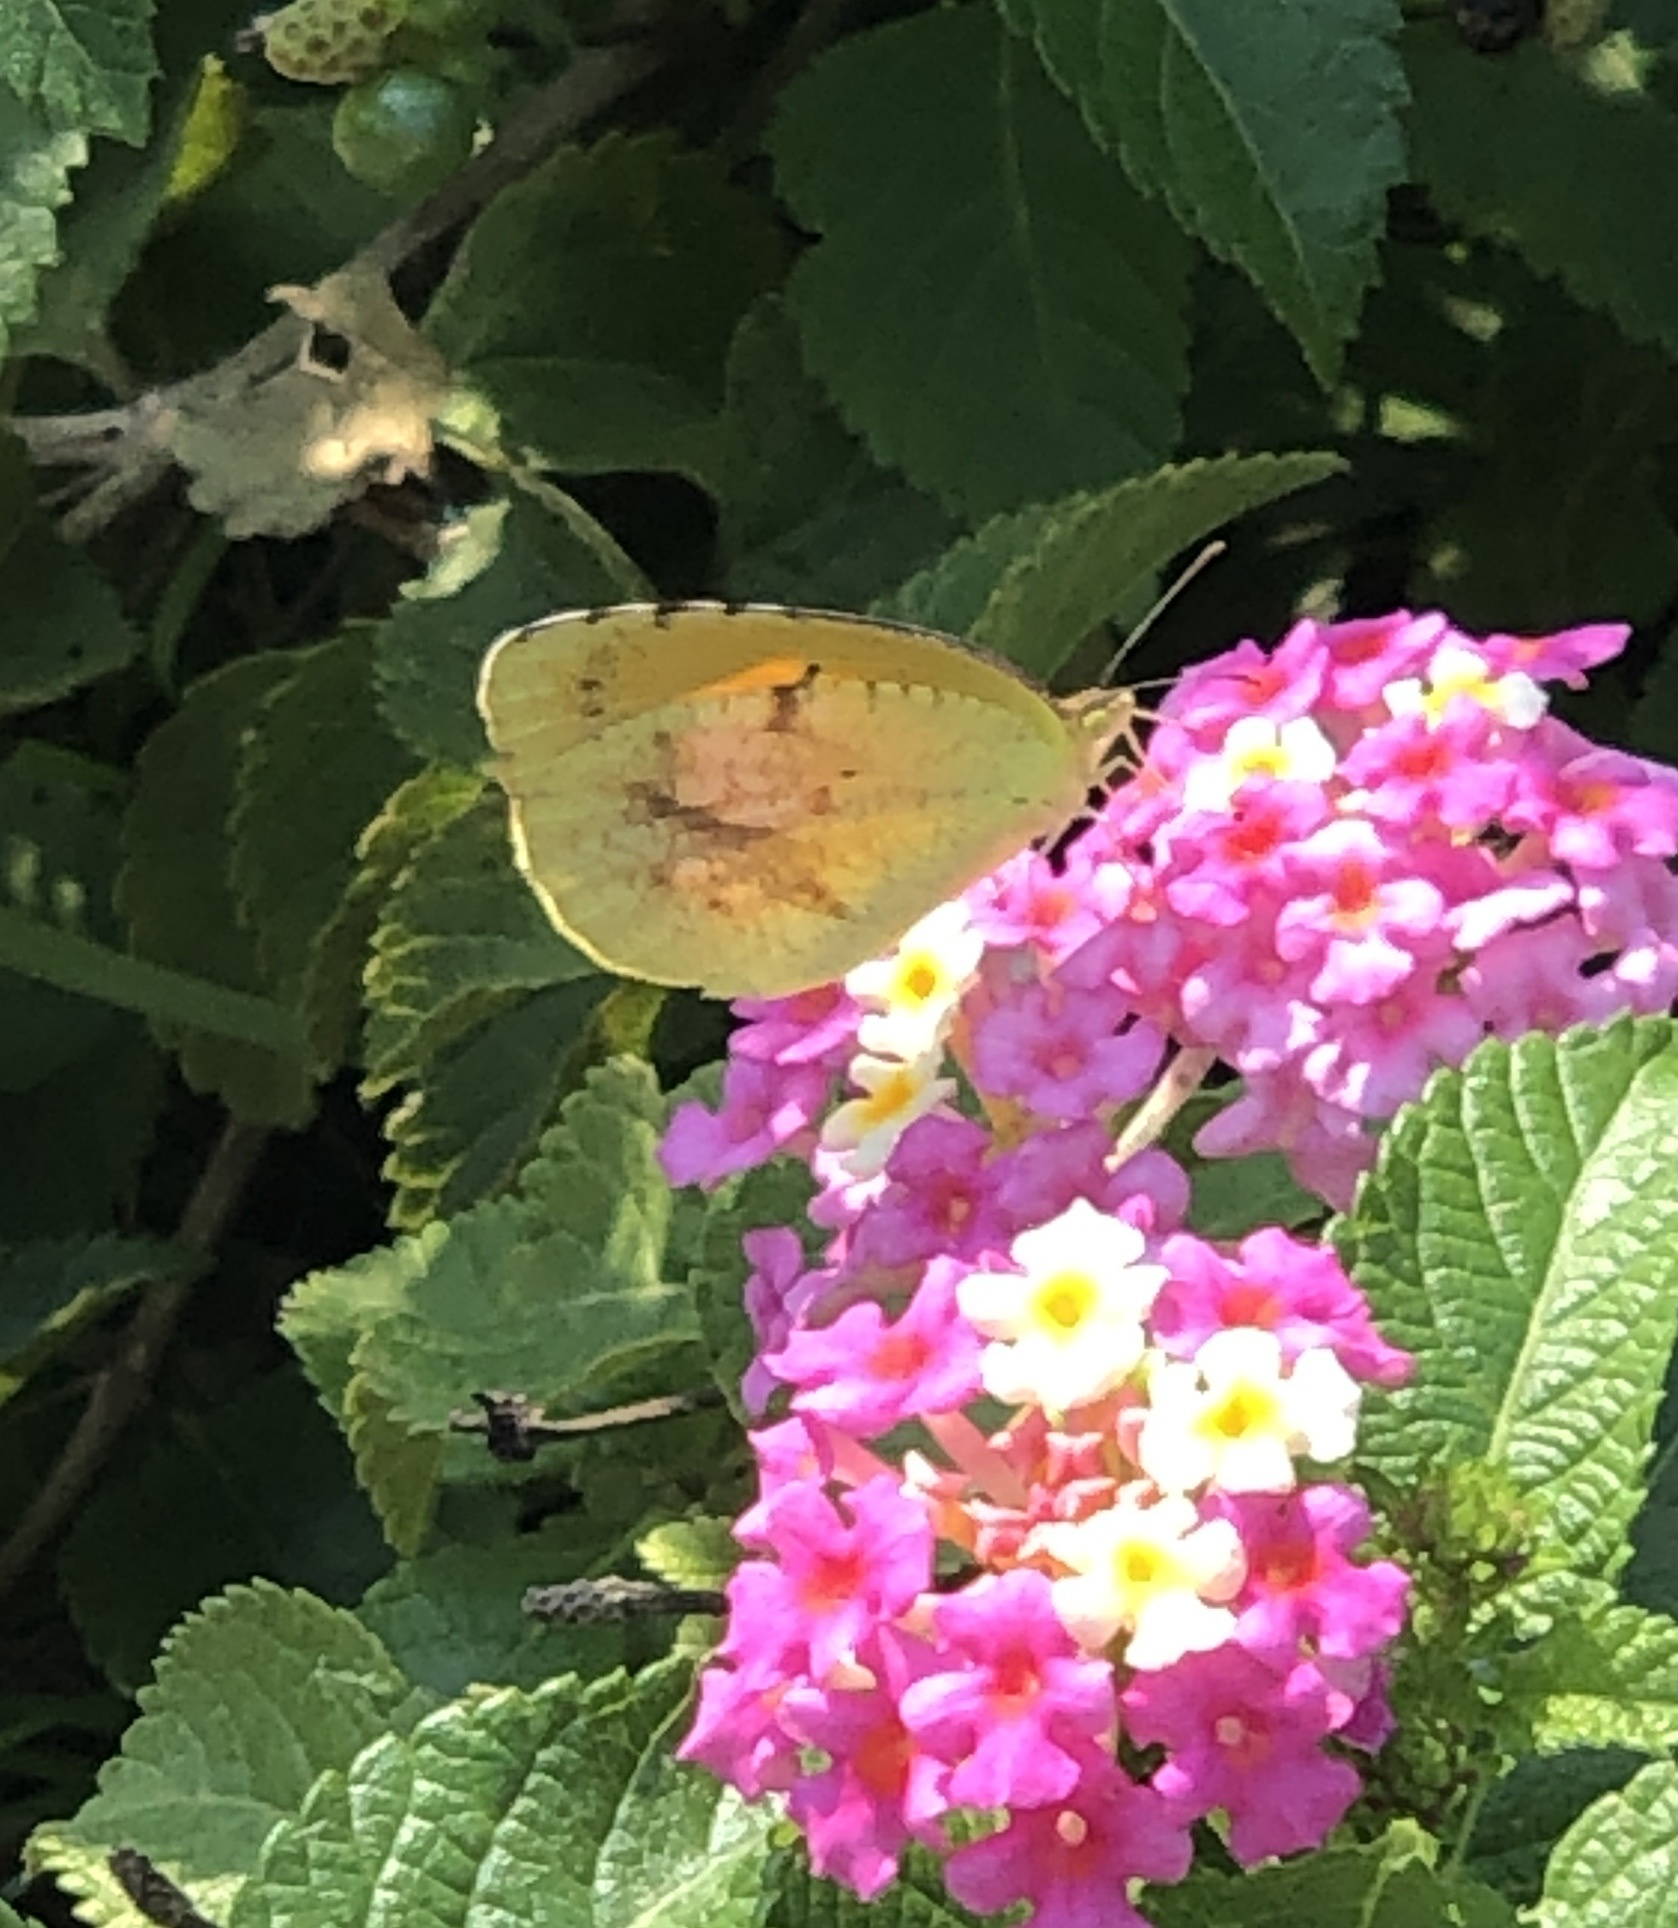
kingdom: Animalia
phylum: Arthropoda
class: Insecta
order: Lepidoptera
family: Pieridae
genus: Abaeis
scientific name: Abaeis nicippe
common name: Sleepy orange
